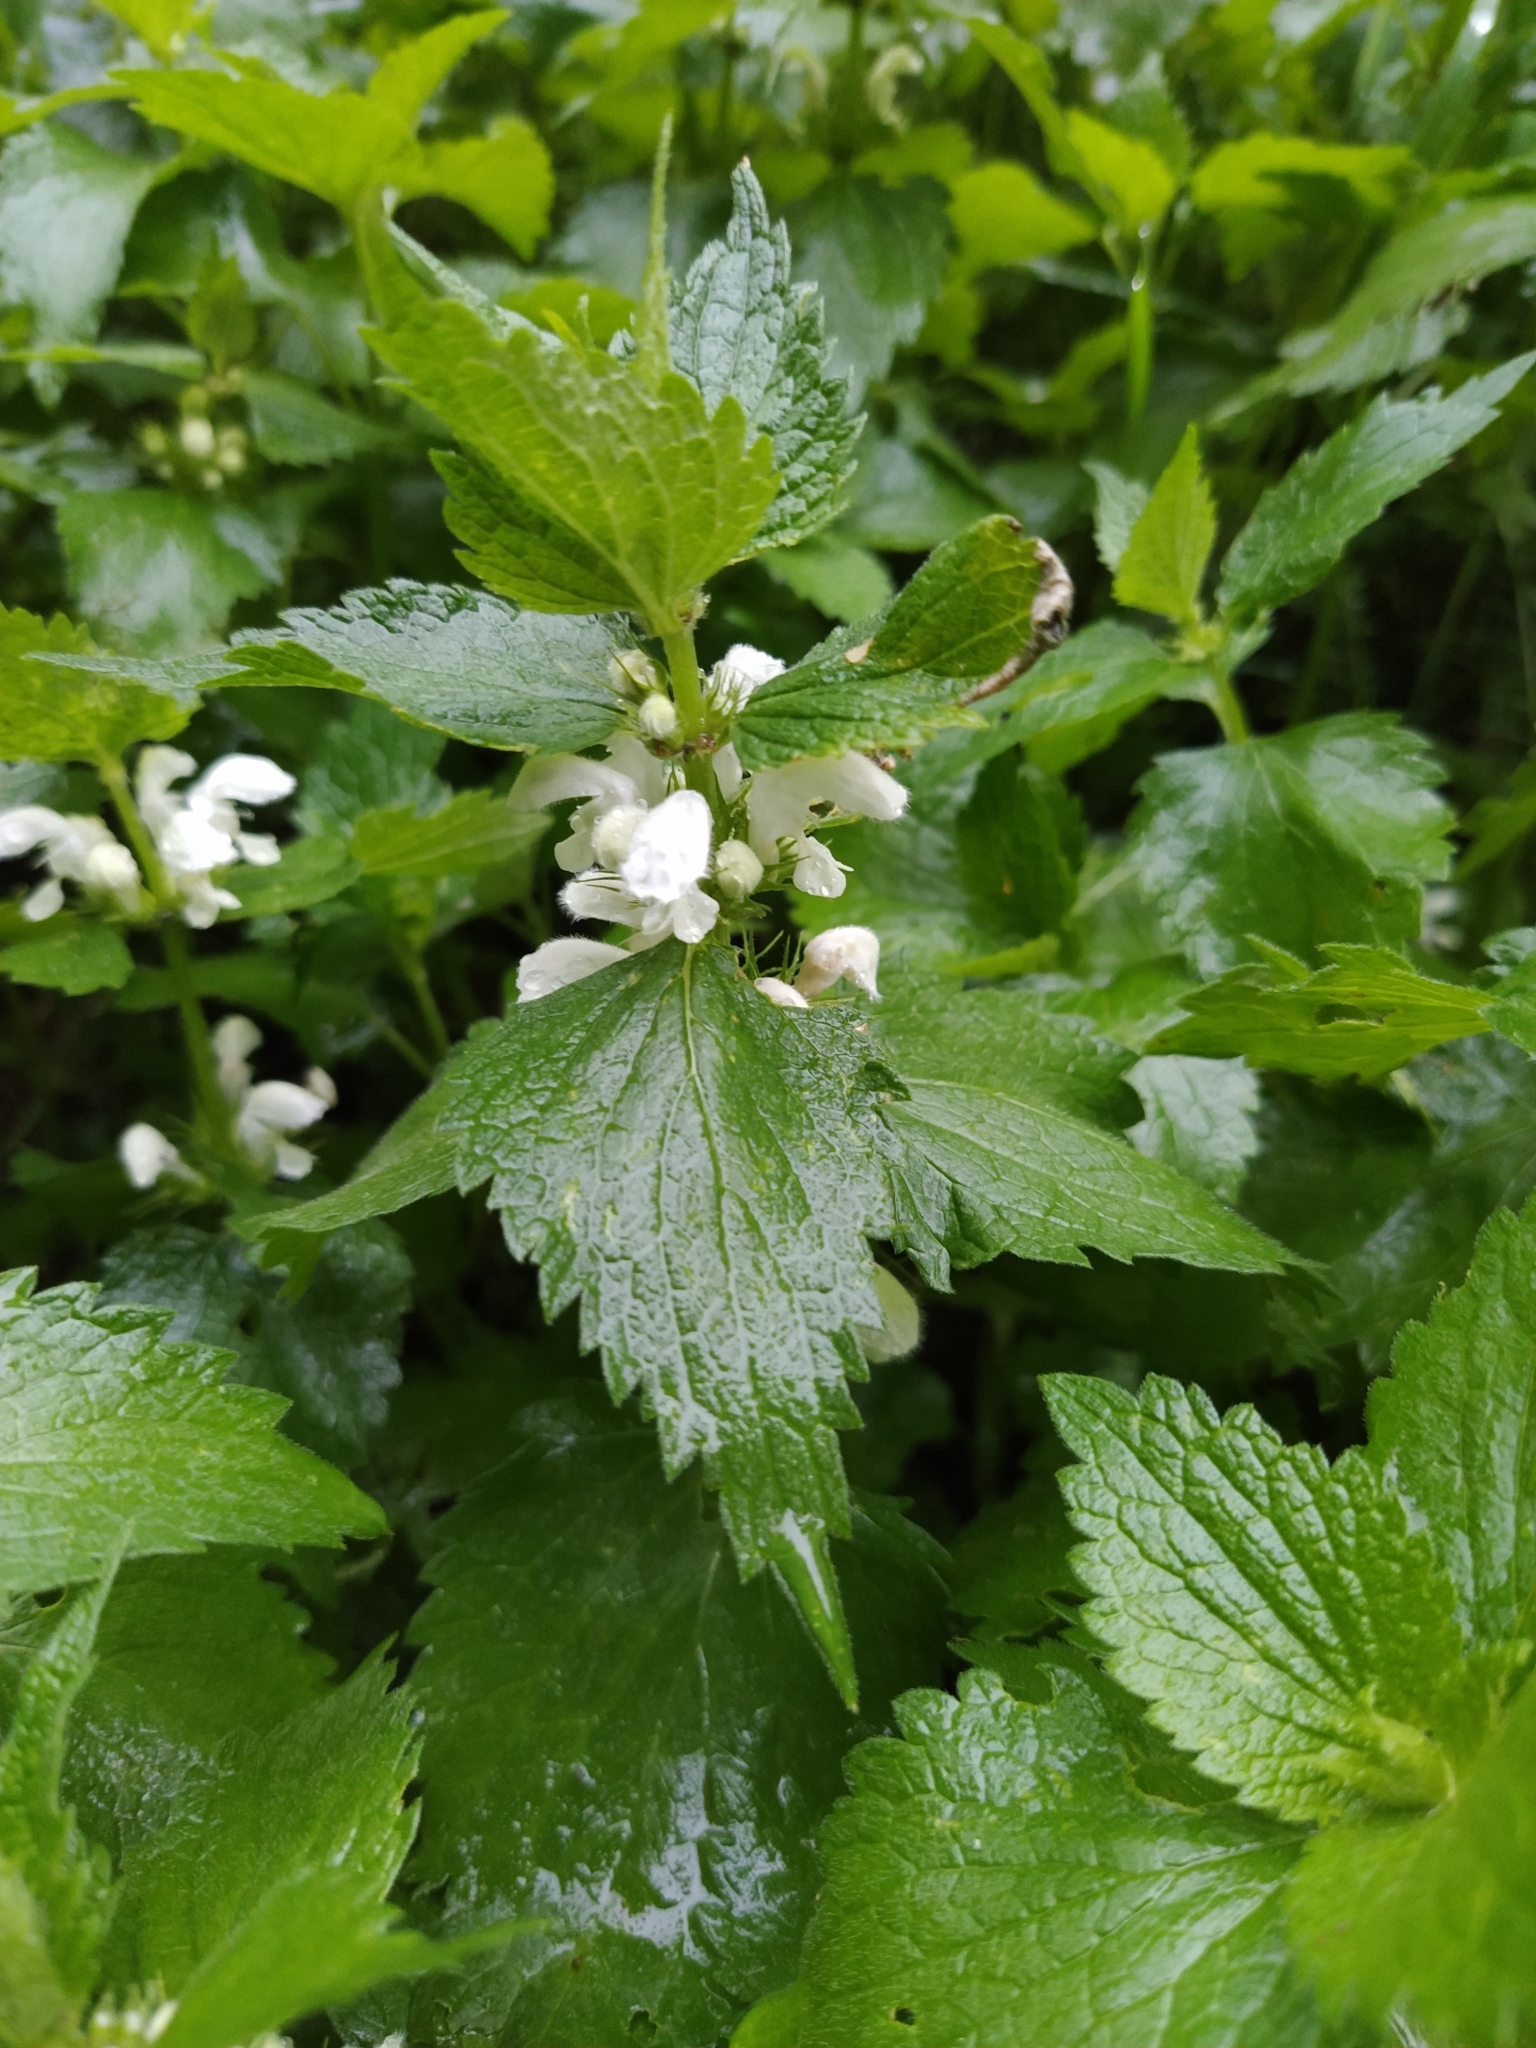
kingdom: Plantae
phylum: Tracheophyta
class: Magnoliopsida
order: Lamiales
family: Lamiaceae
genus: Lamium
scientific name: Lamium album
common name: White dead-nettle
